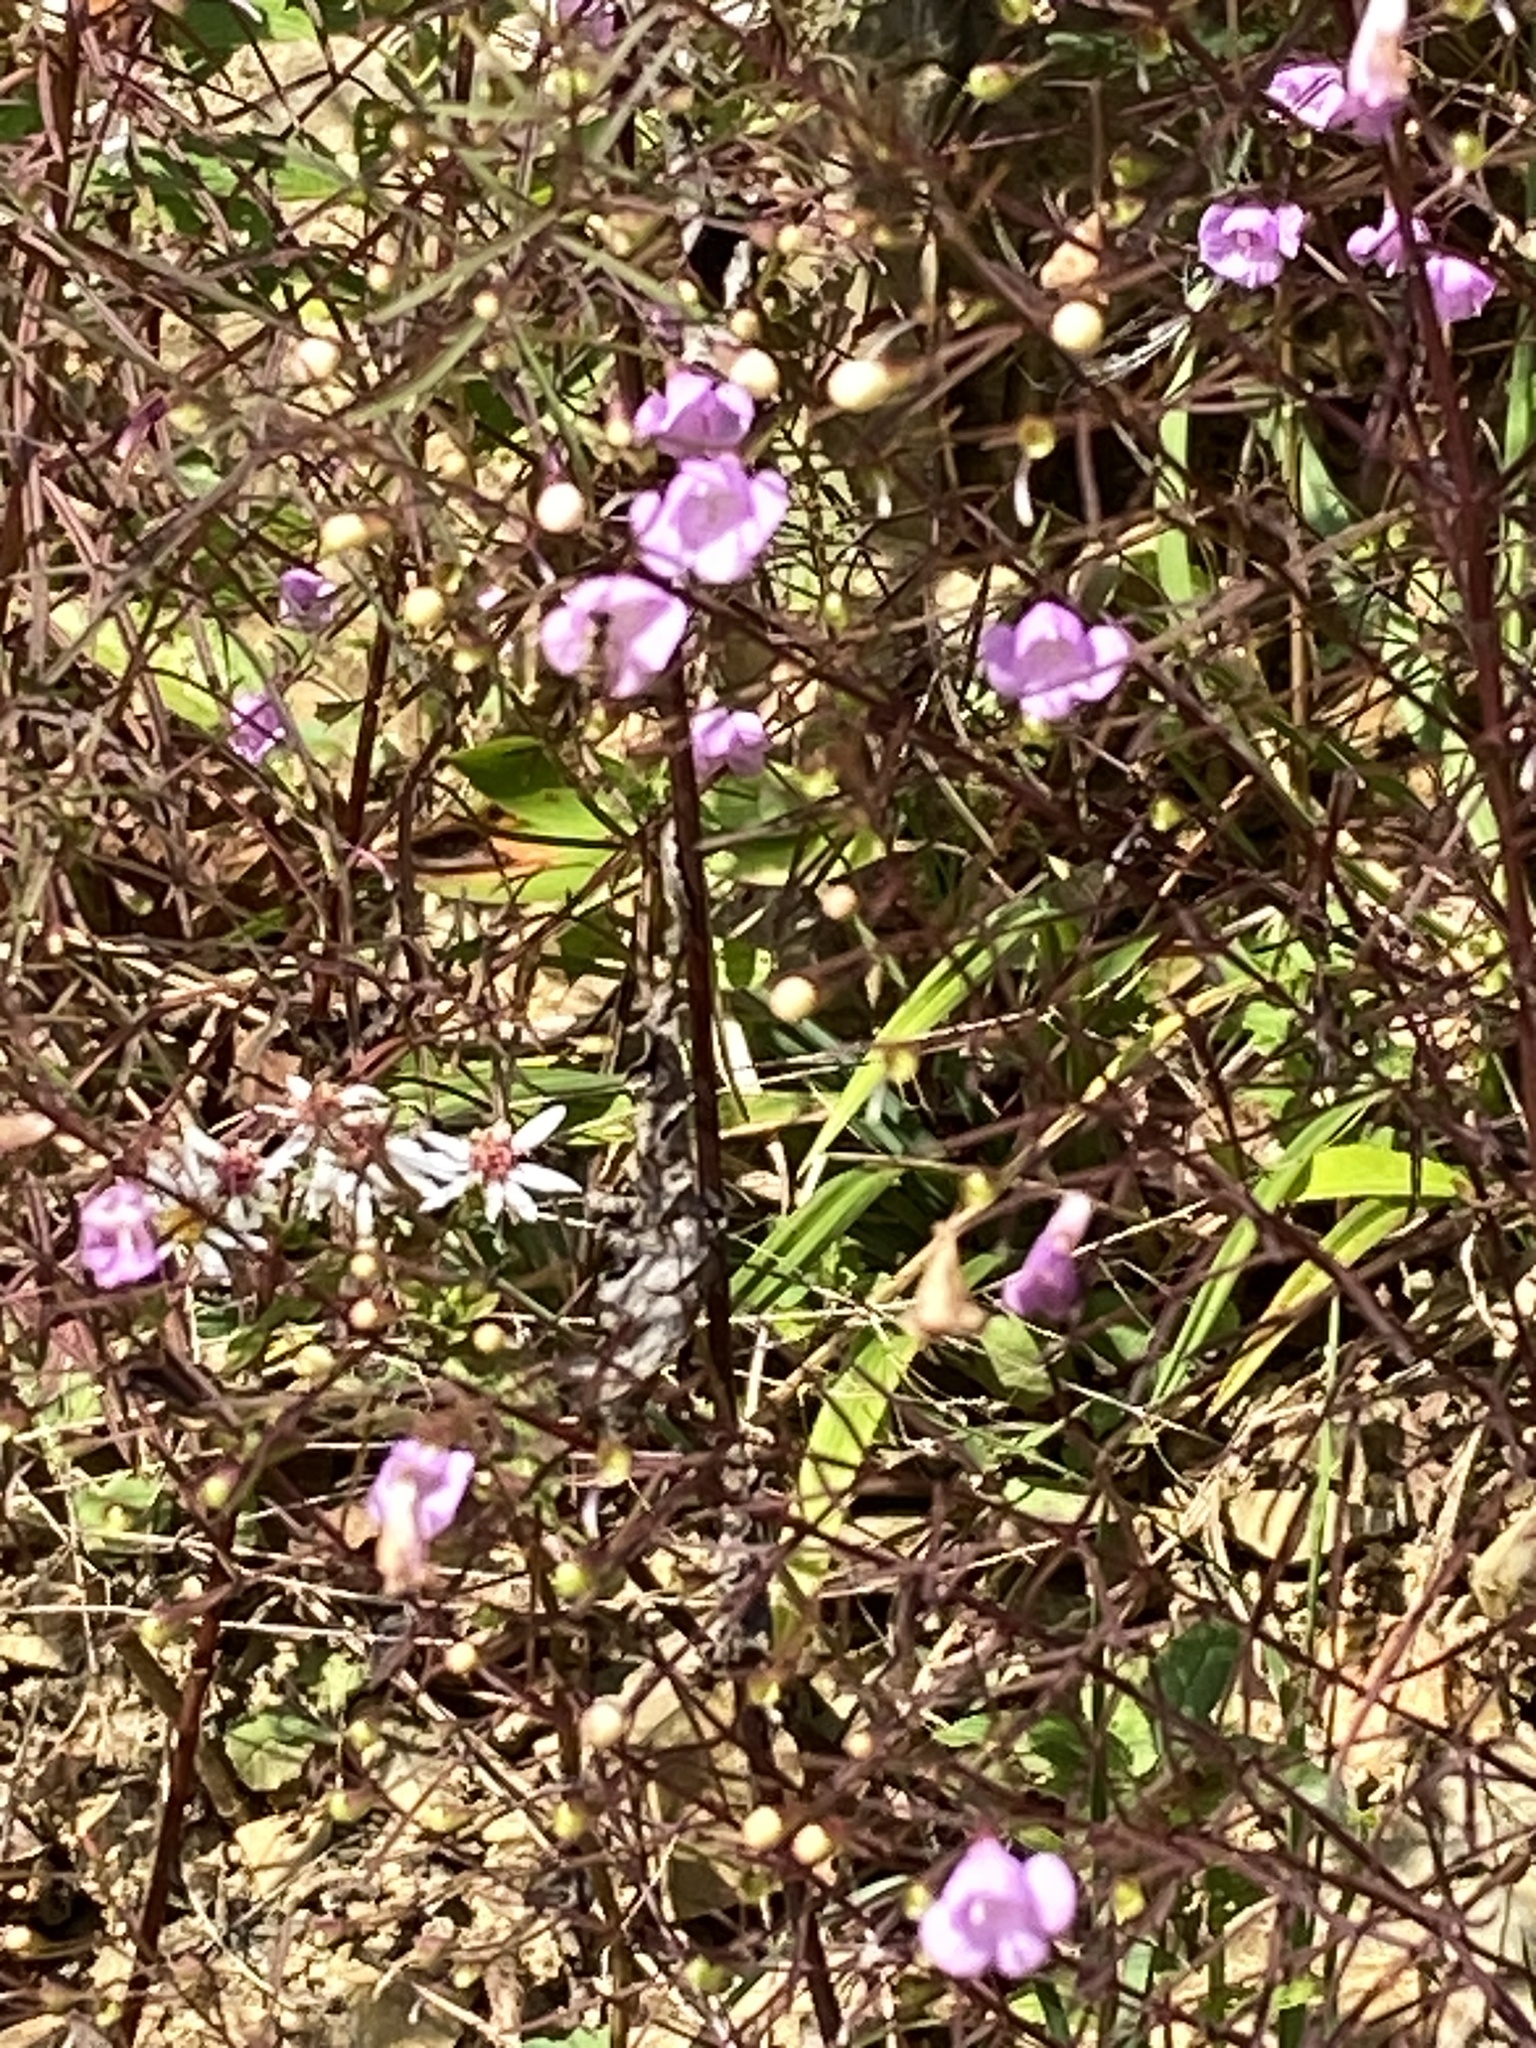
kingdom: Plantae
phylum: Tracheophyta
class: Magnoliopsida
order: Lamiales
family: Orobanchaceae
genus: Agalinis
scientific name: Agalinis tenuifolia
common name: Slender agalinis
